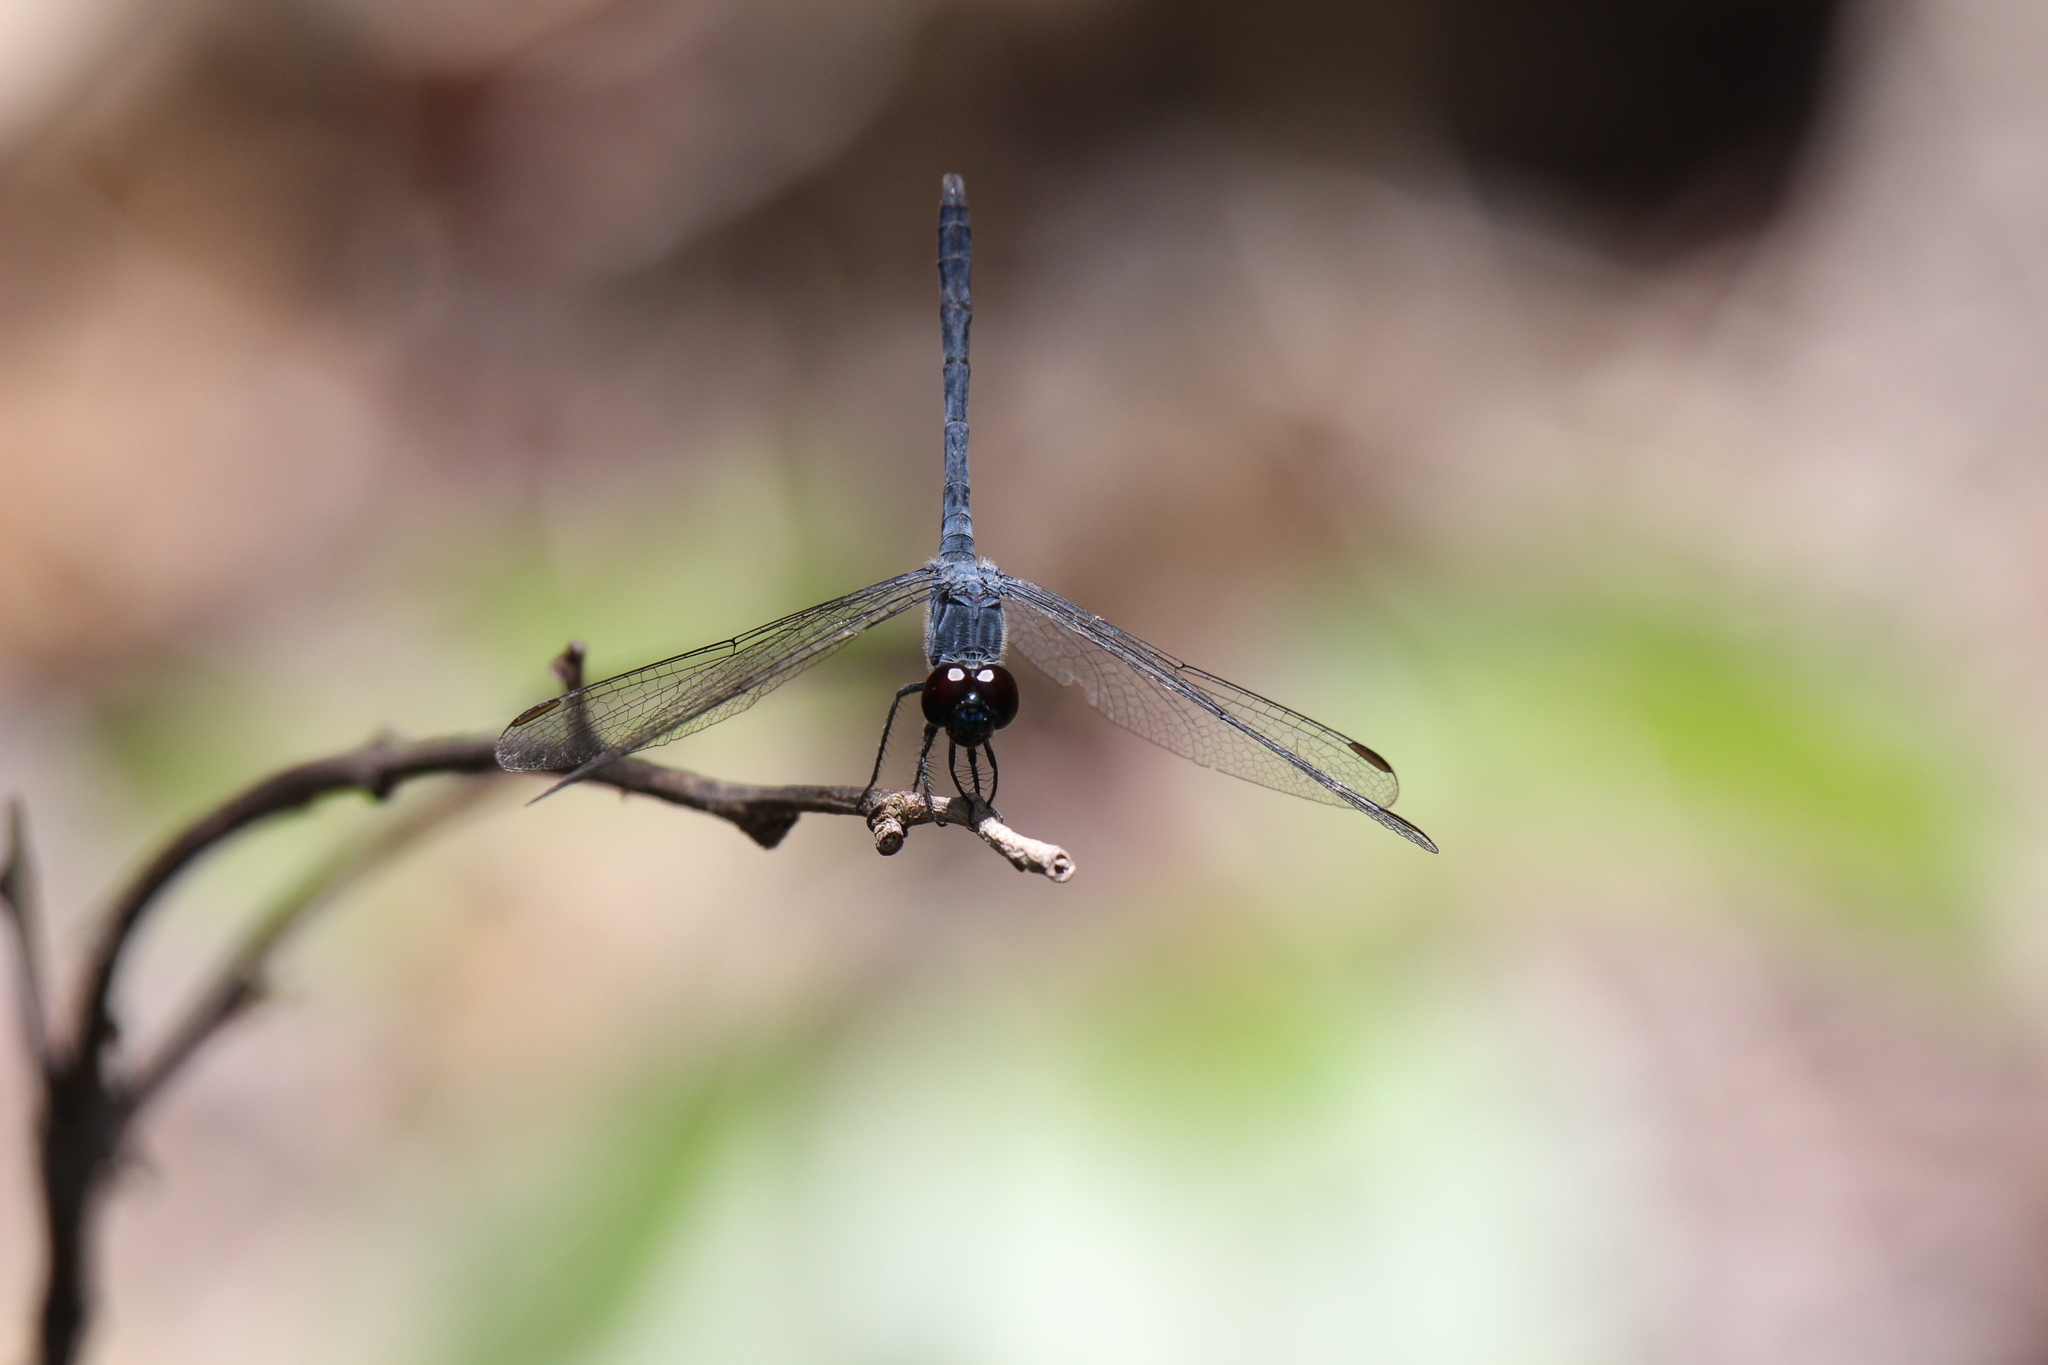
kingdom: Animalia
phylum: Arthropoda
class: Insecta
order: Odonata
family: Libellulidae
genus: Erythrodiplax
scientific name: Erythrodiplax berenice
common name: Seaside dragonlet
